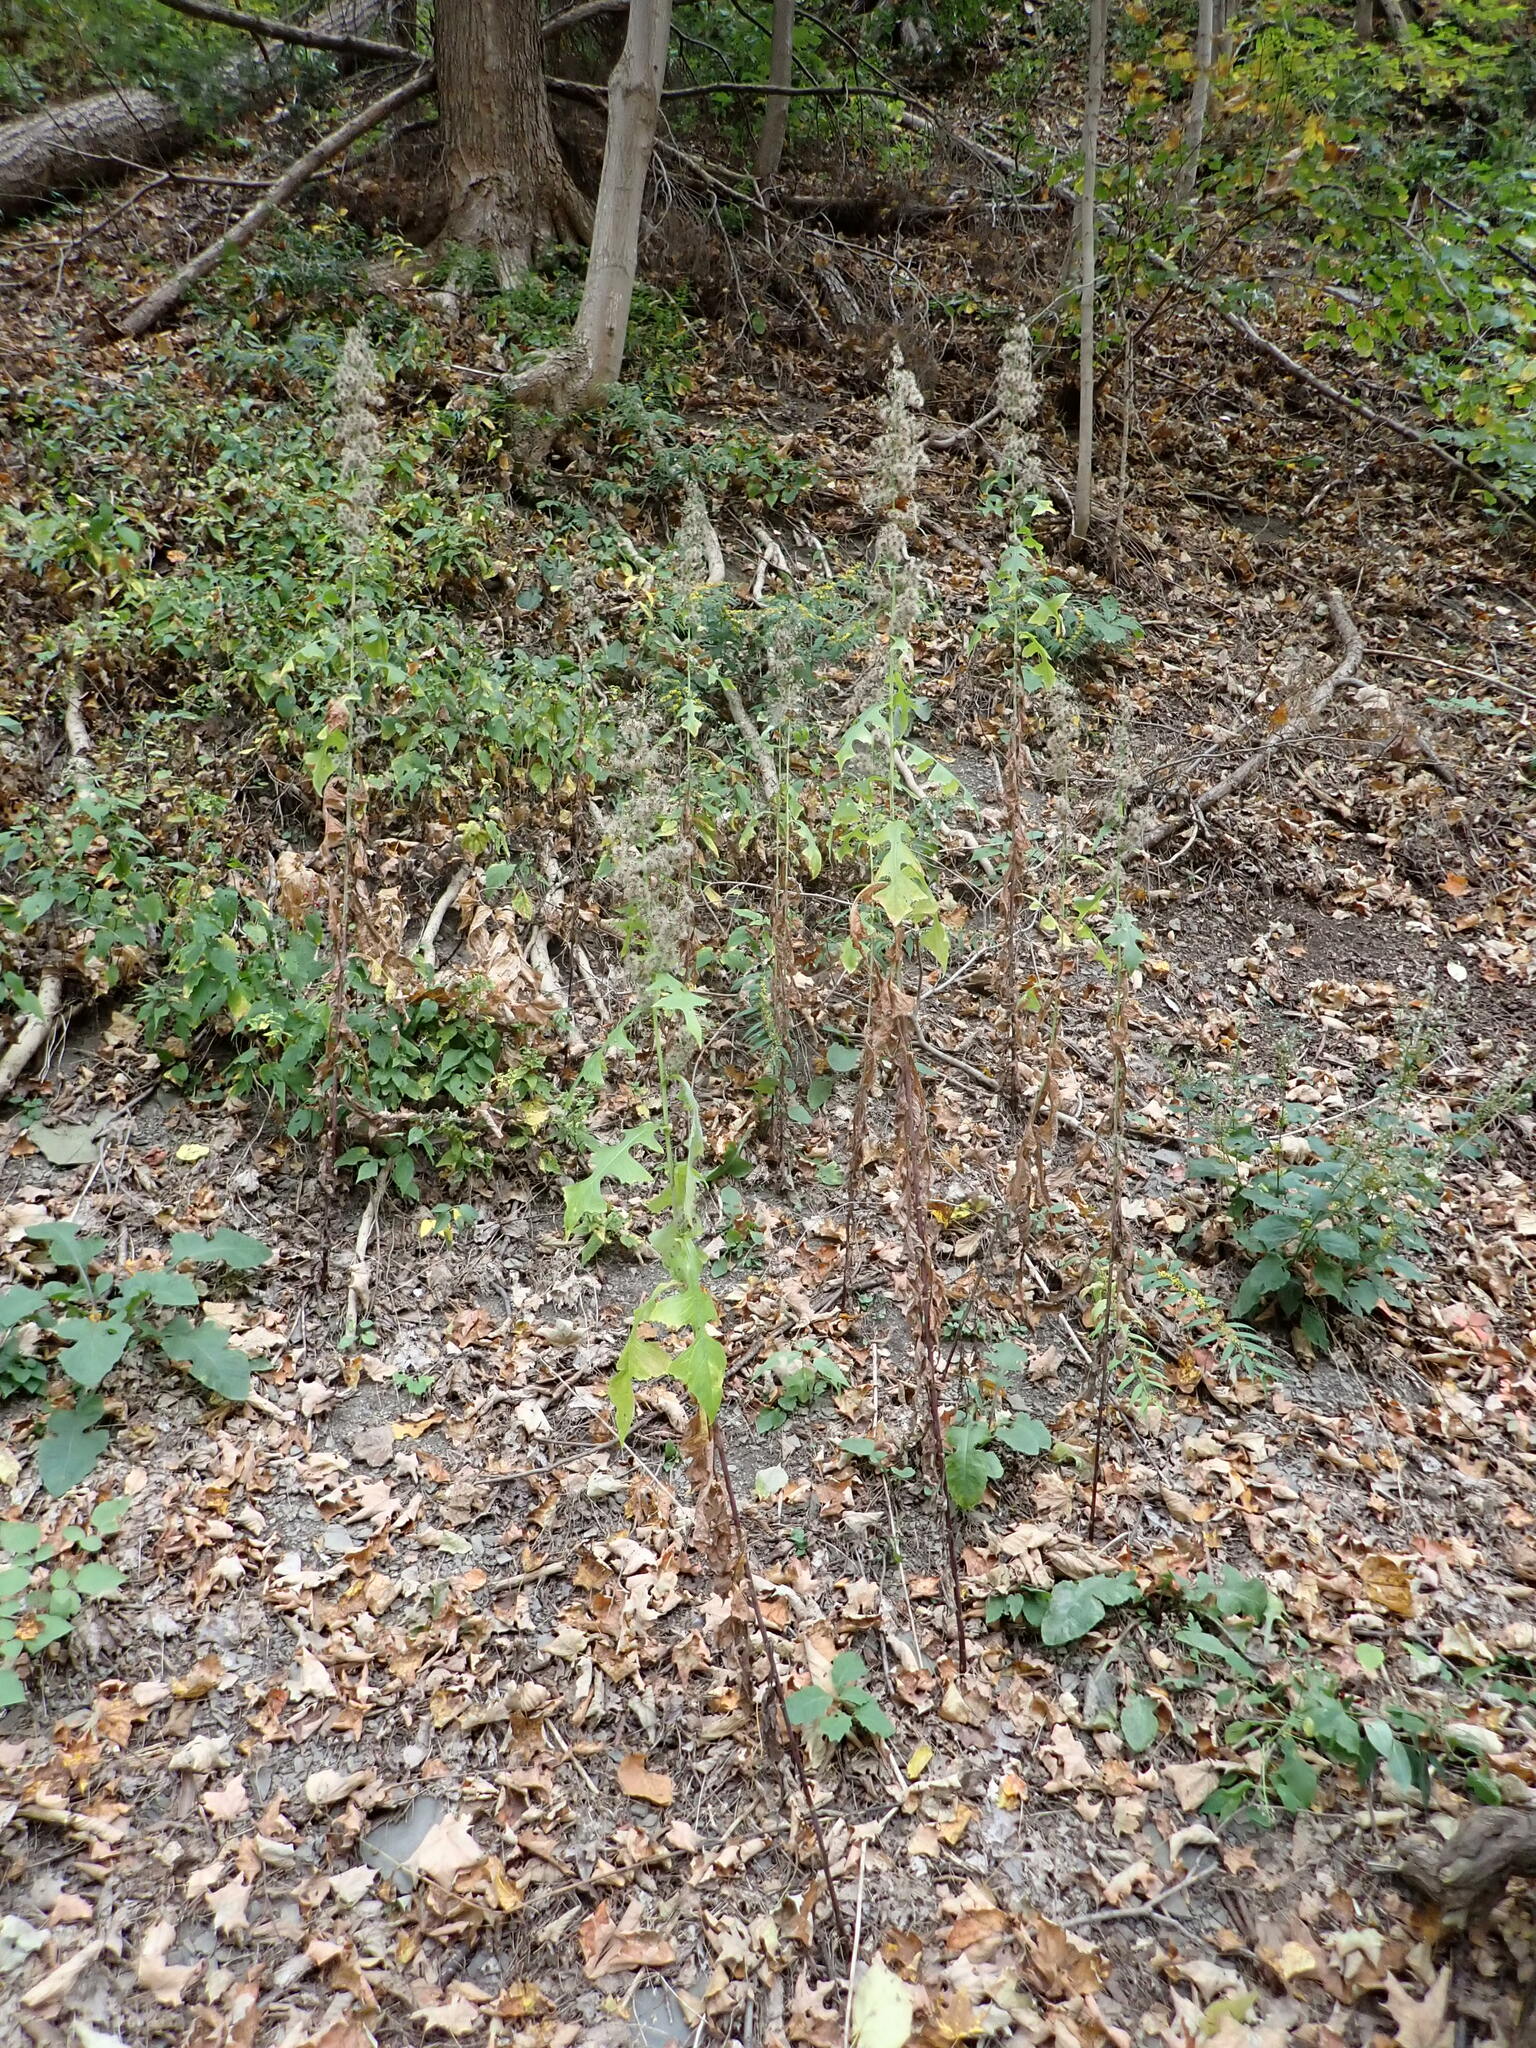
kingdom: Plantae
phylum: Tracheophyta
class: Magnoliopsida
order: Asterales
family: Asteraceae
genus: Lactuca
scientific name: Lactuca biennis
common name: Blue wood lettuce
